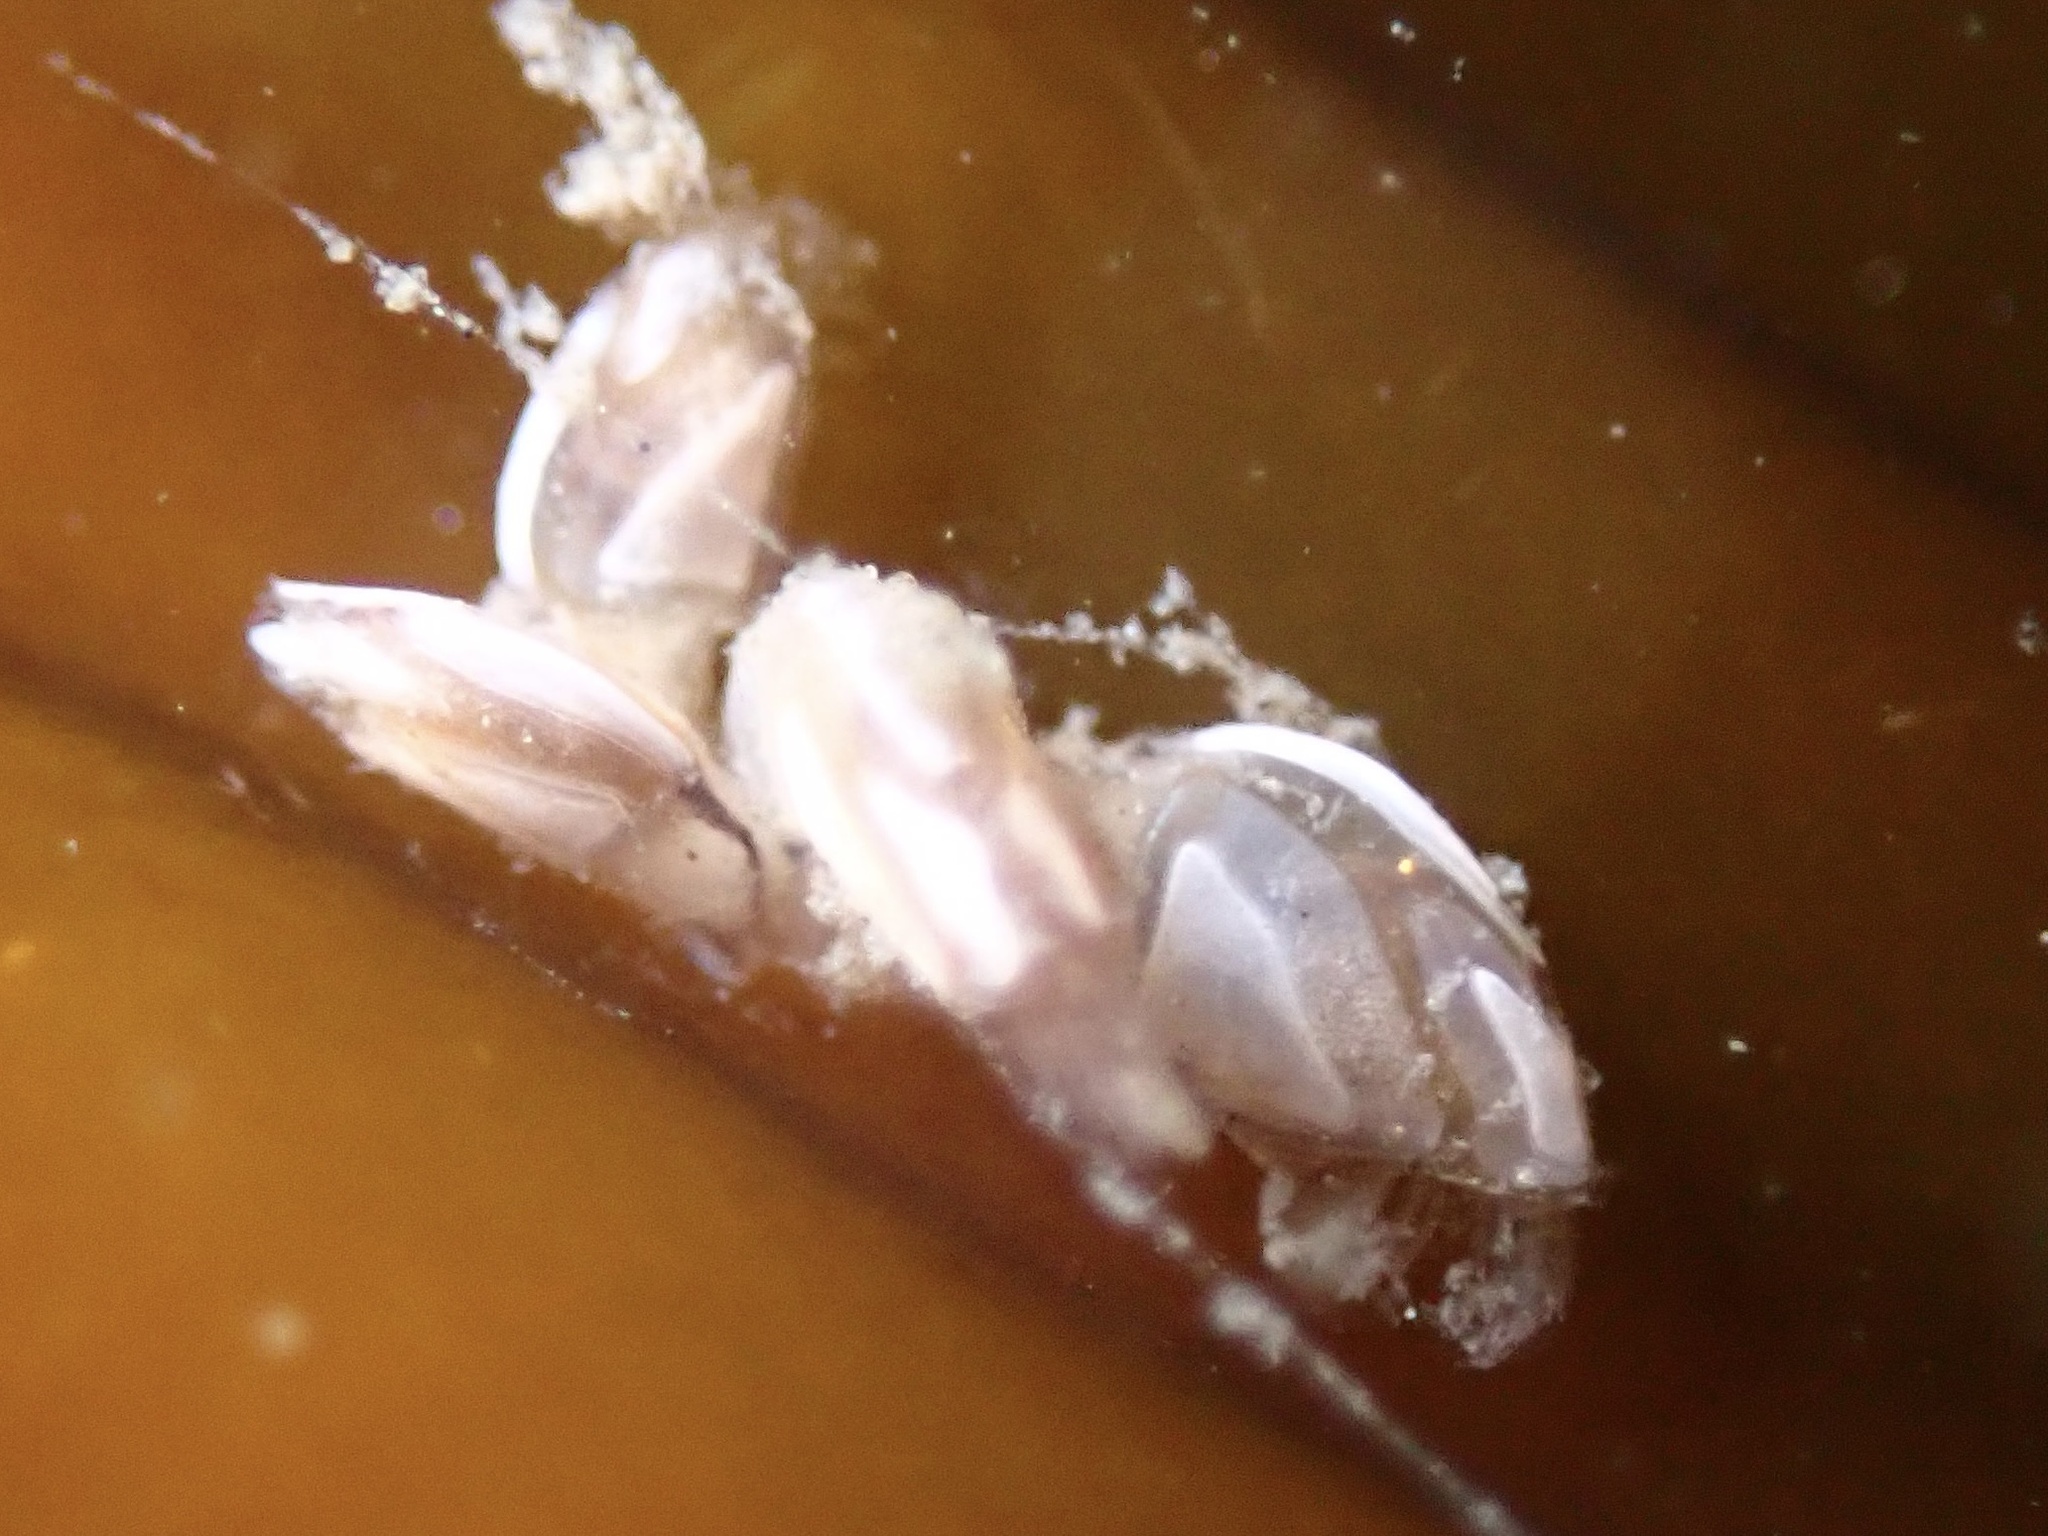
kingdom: Animalia
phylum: Arthropoda
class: Maxillopoda
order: Pedunculata
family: Lepadidae
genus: Lepas
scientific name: Lepas pacifica
